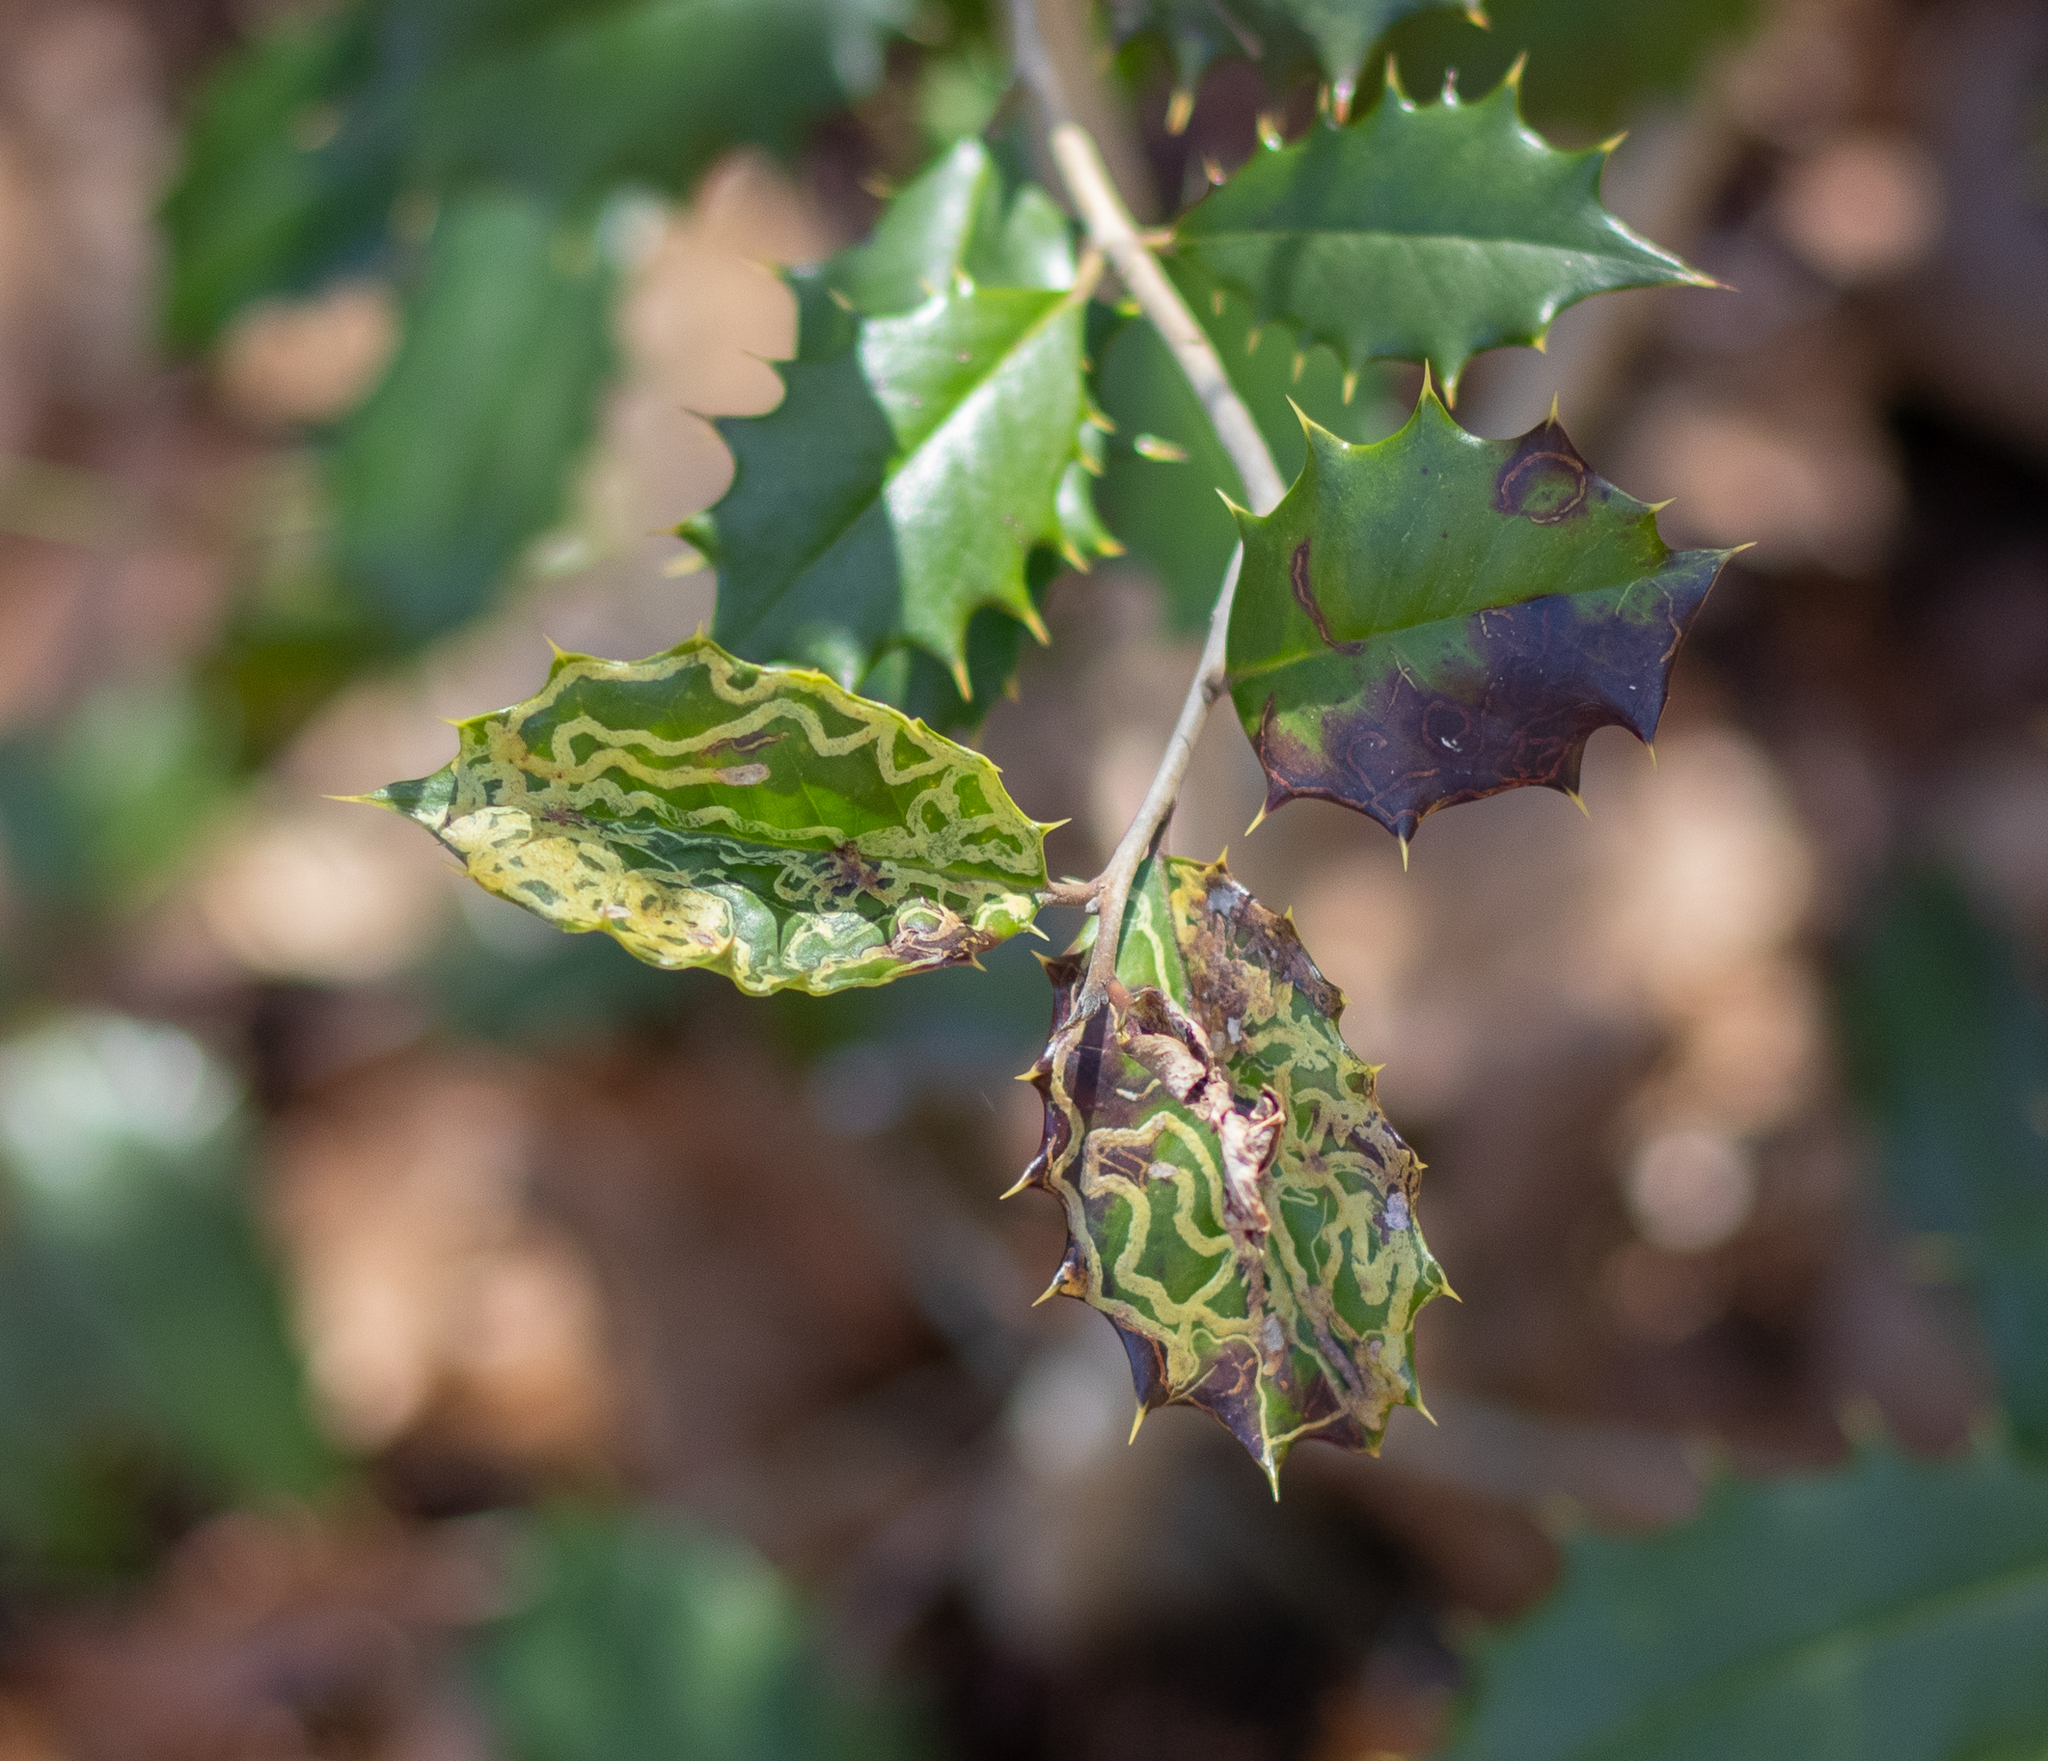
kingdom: Animalia
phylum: Arthropoda
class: Insecta
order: Diptera
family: Agromyzidae
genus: Phytomyza
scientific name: Phytomyza opacae
